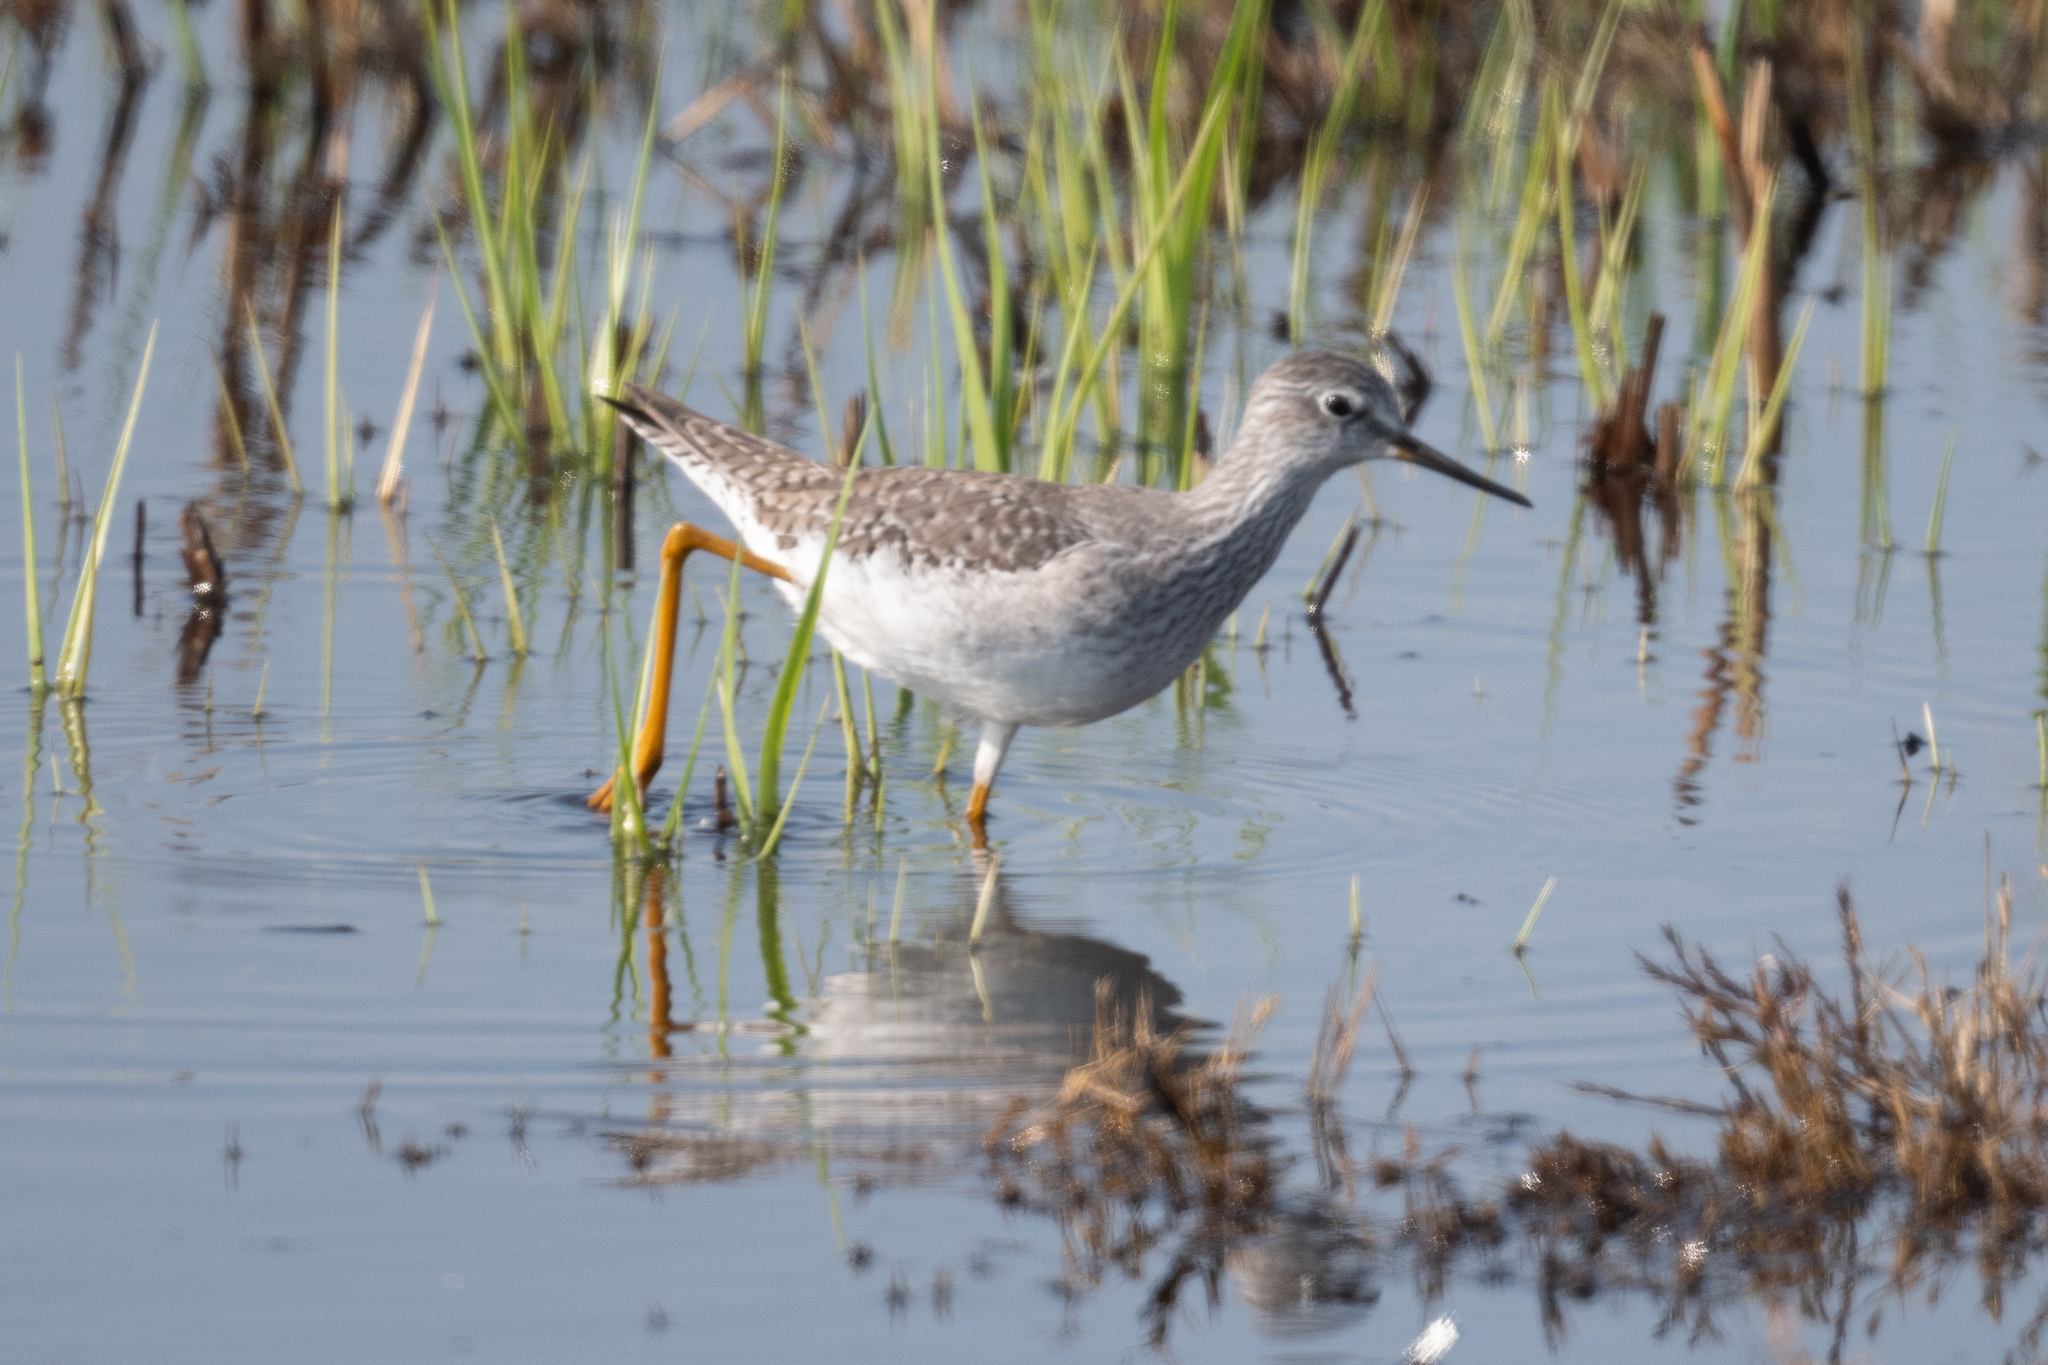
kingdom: Animalia
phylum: Chordata
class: Aves
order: Charadriiformes
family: Scolopacidae
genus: Tringa
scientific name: Tringa flavipes
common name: Lesser yellowlegs
